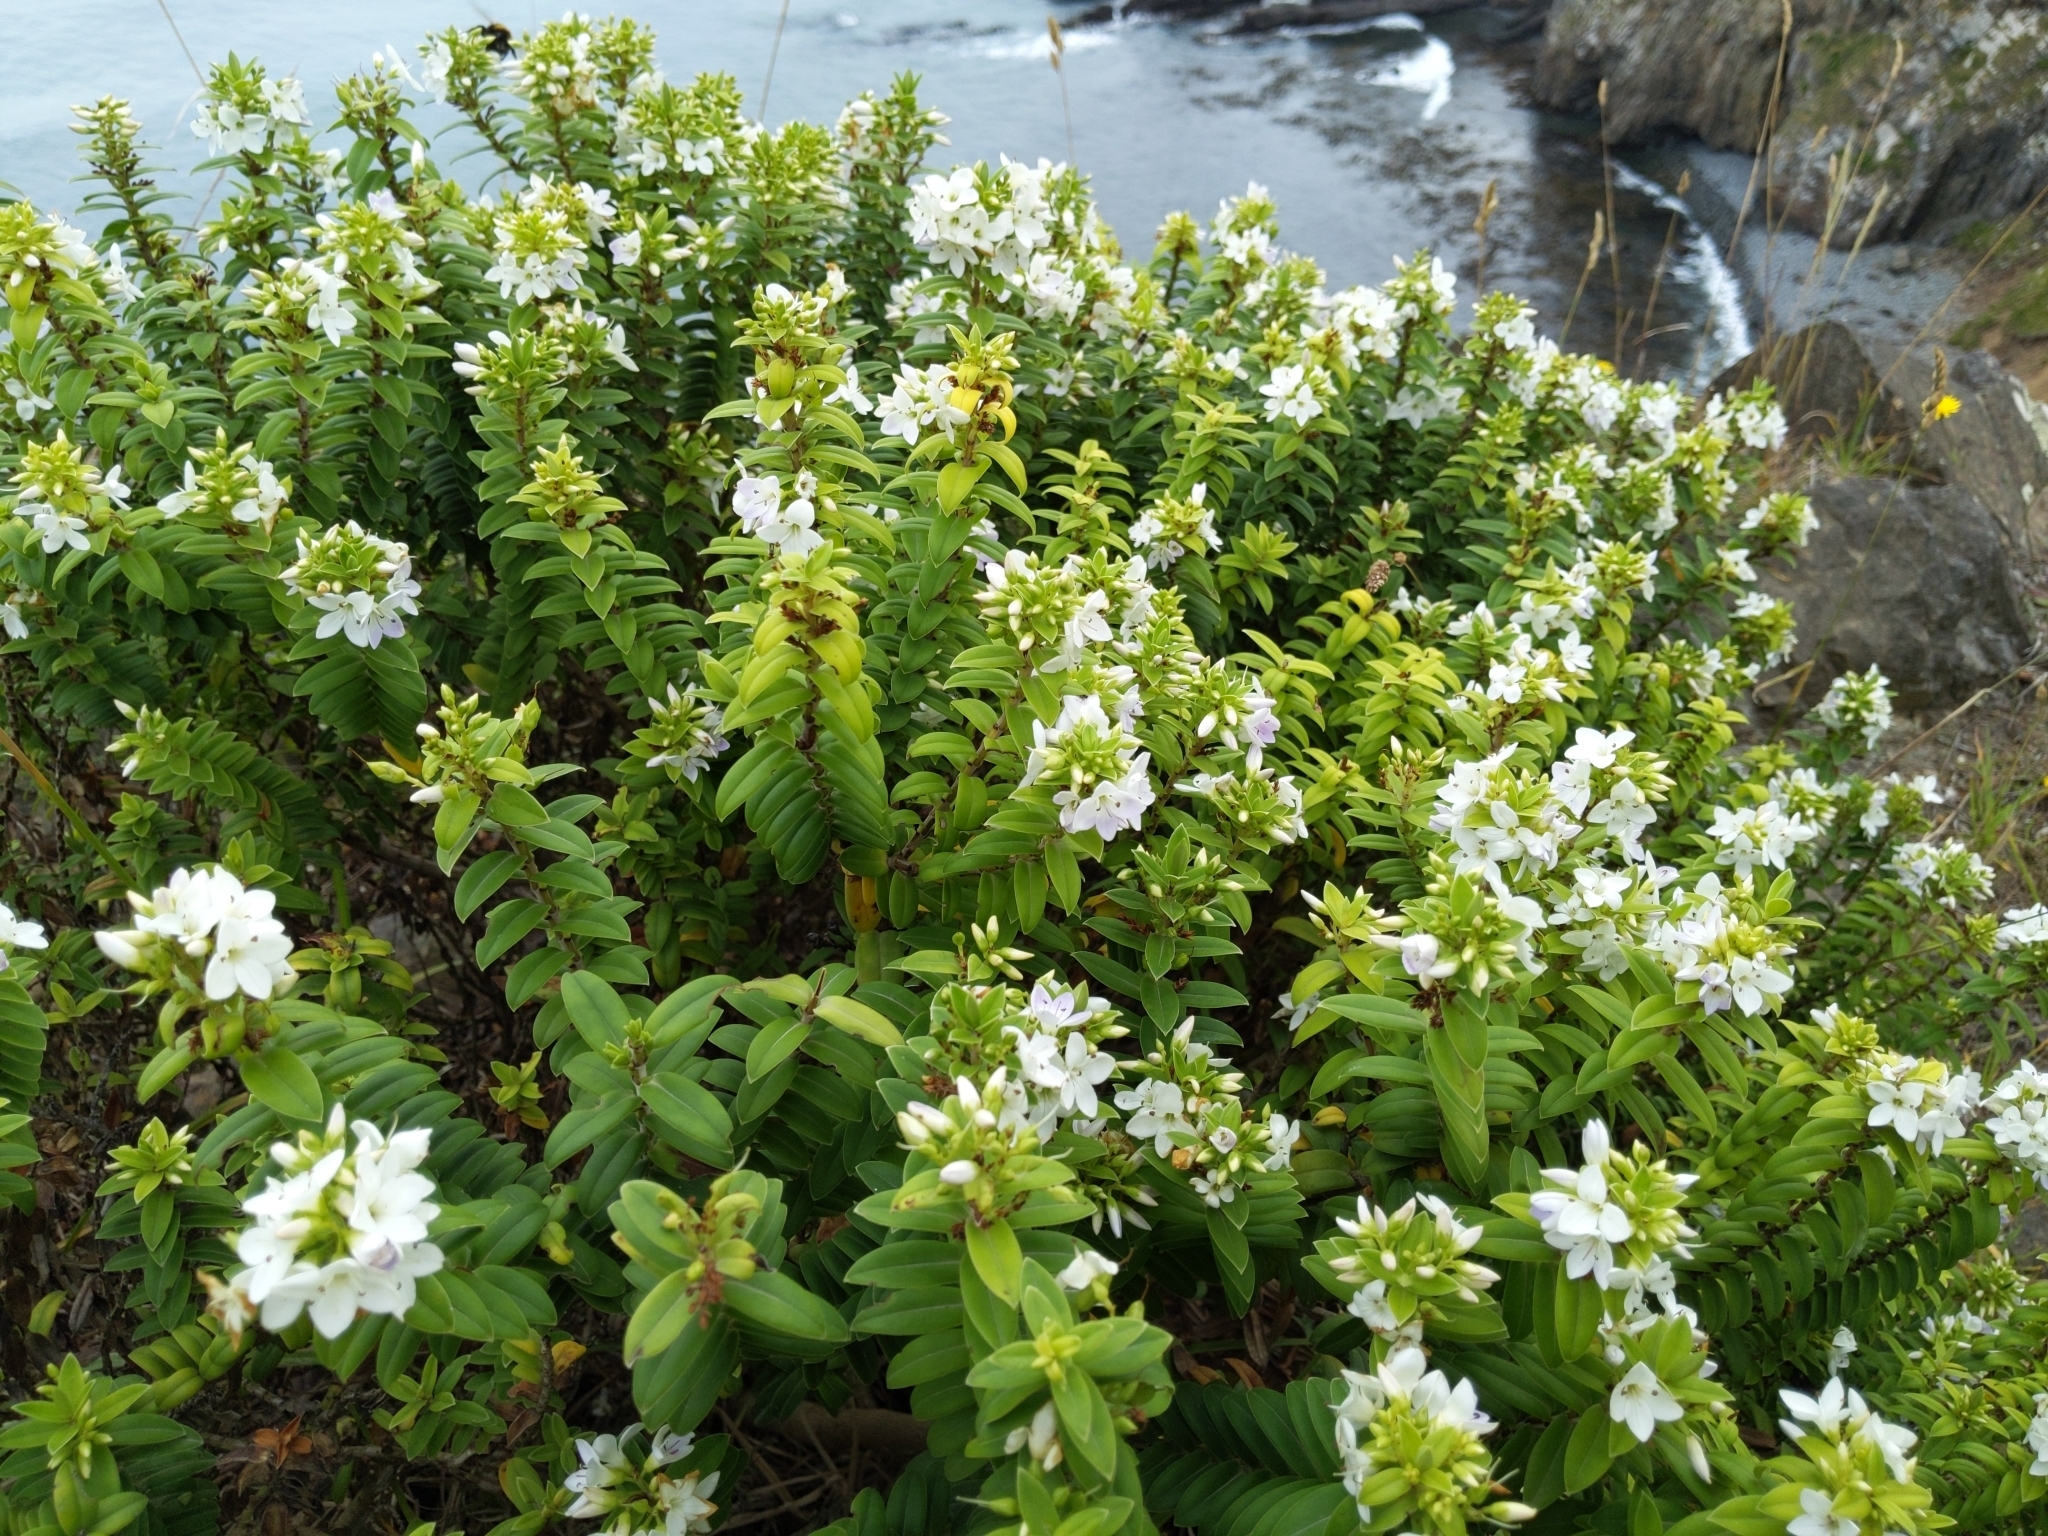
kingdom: Plantae
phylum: Tracheophyta
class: Magnoliopsida
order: Lamiales
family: Plantaginaceae
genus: Veronica
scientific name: Veronica elliptica
